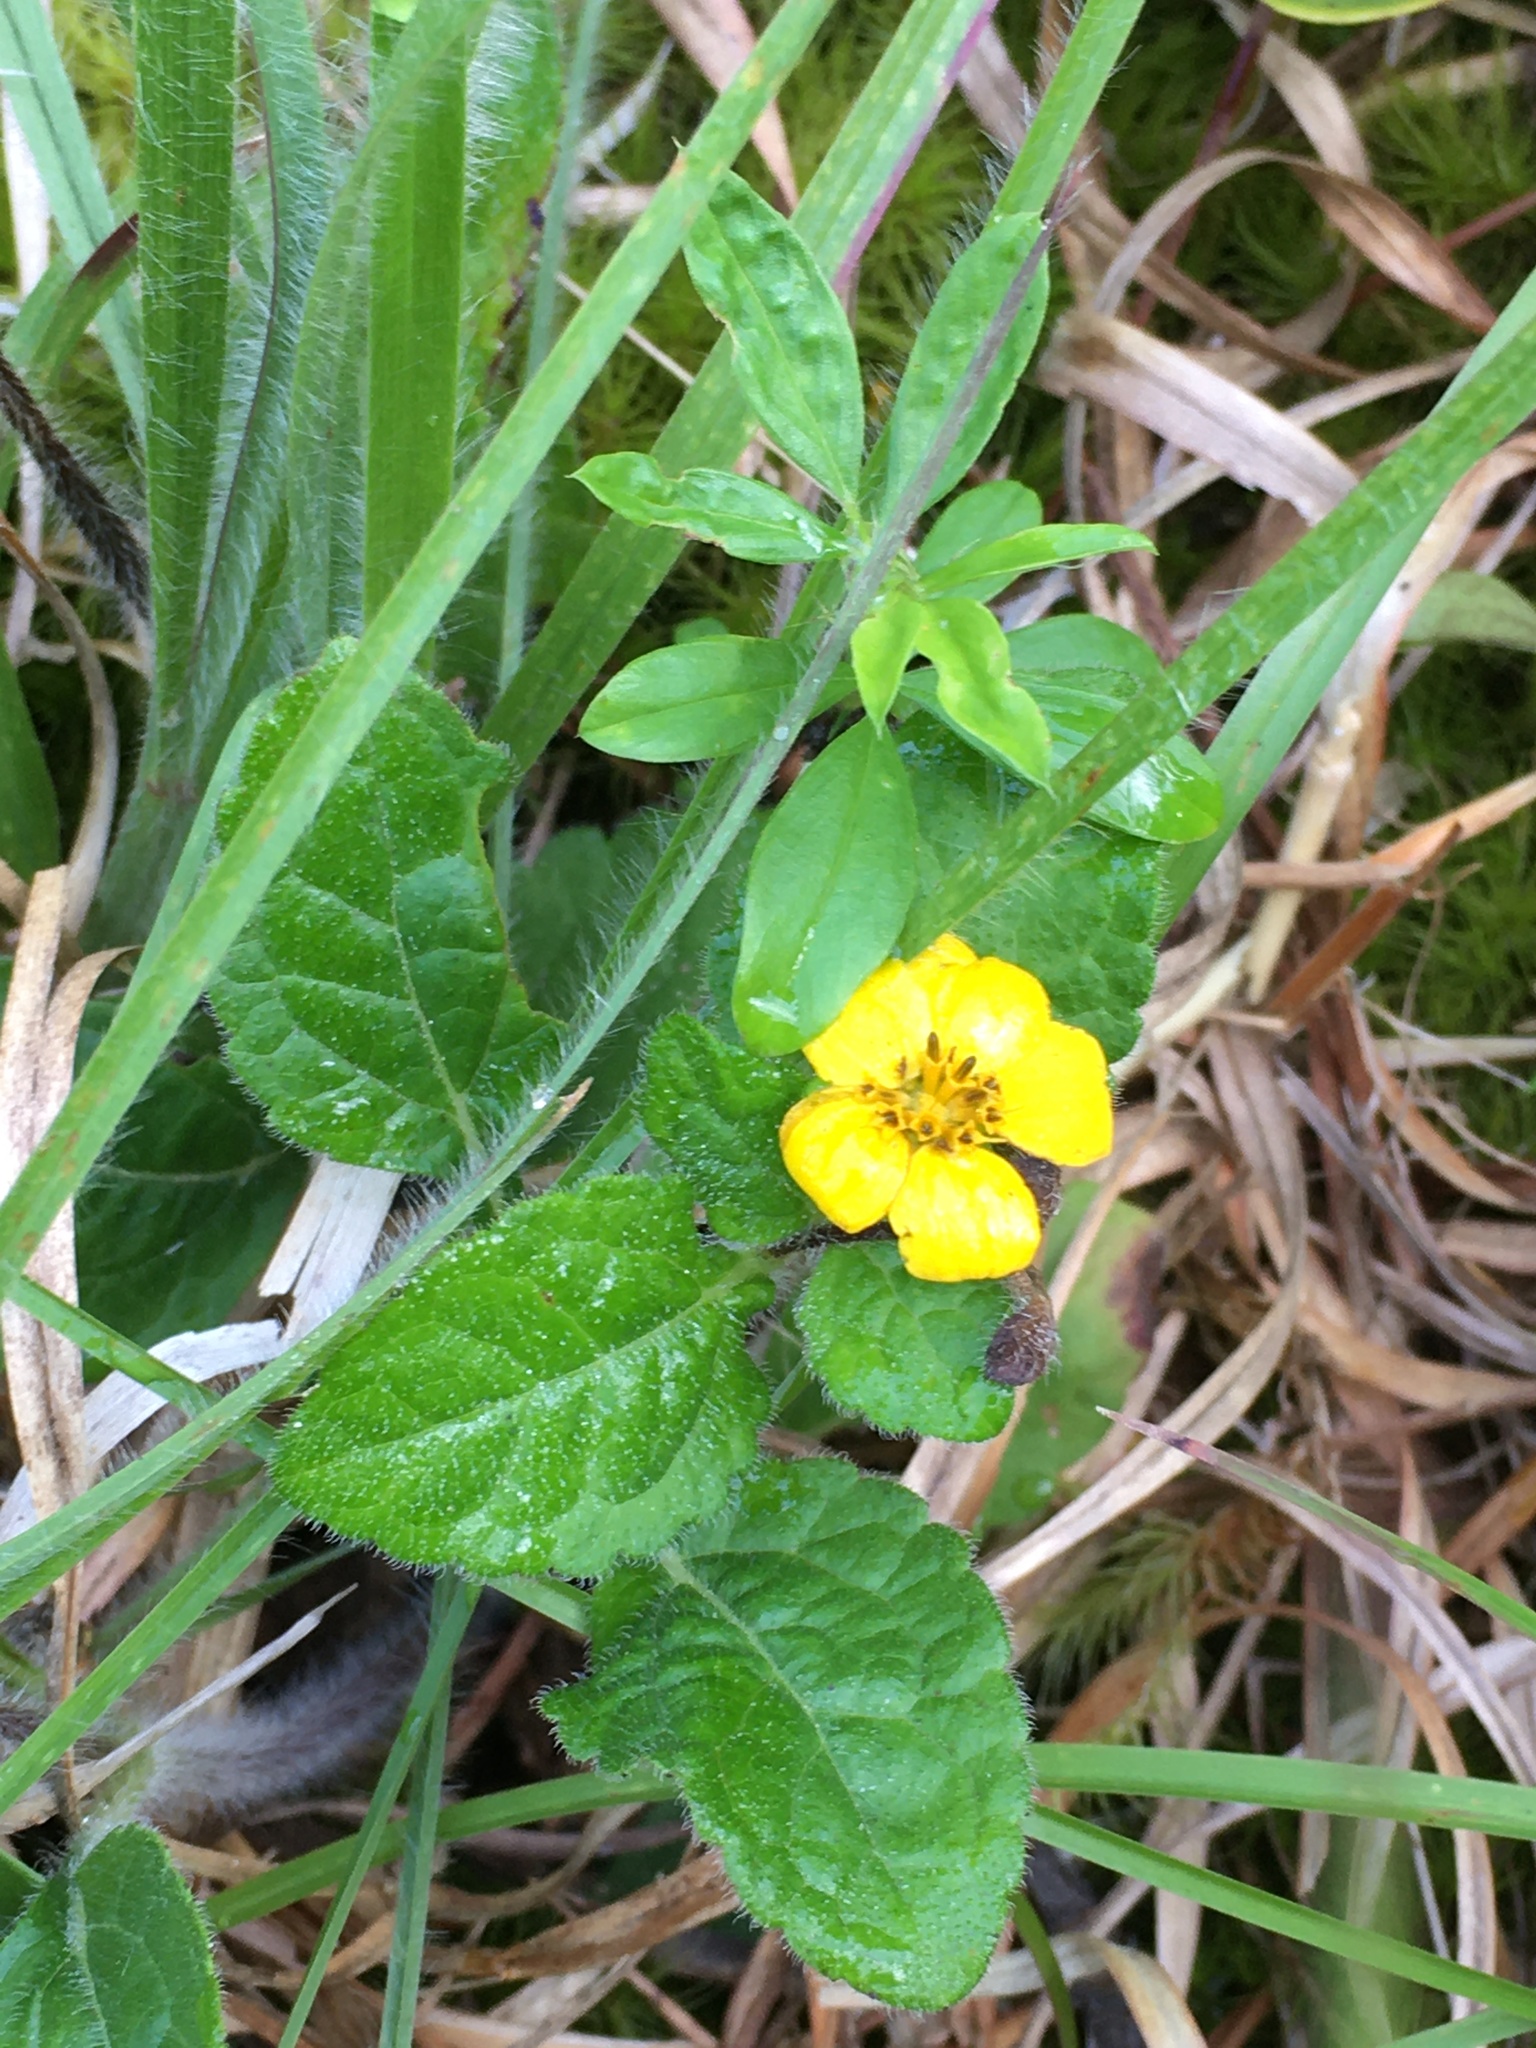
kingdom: Plantae
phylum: Tracheophyta
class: Magnoliopsida
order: Asterales
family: Asteraceae
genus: Chrysogonum
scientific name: Chrysogonum virginianum
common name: Golden-knee
